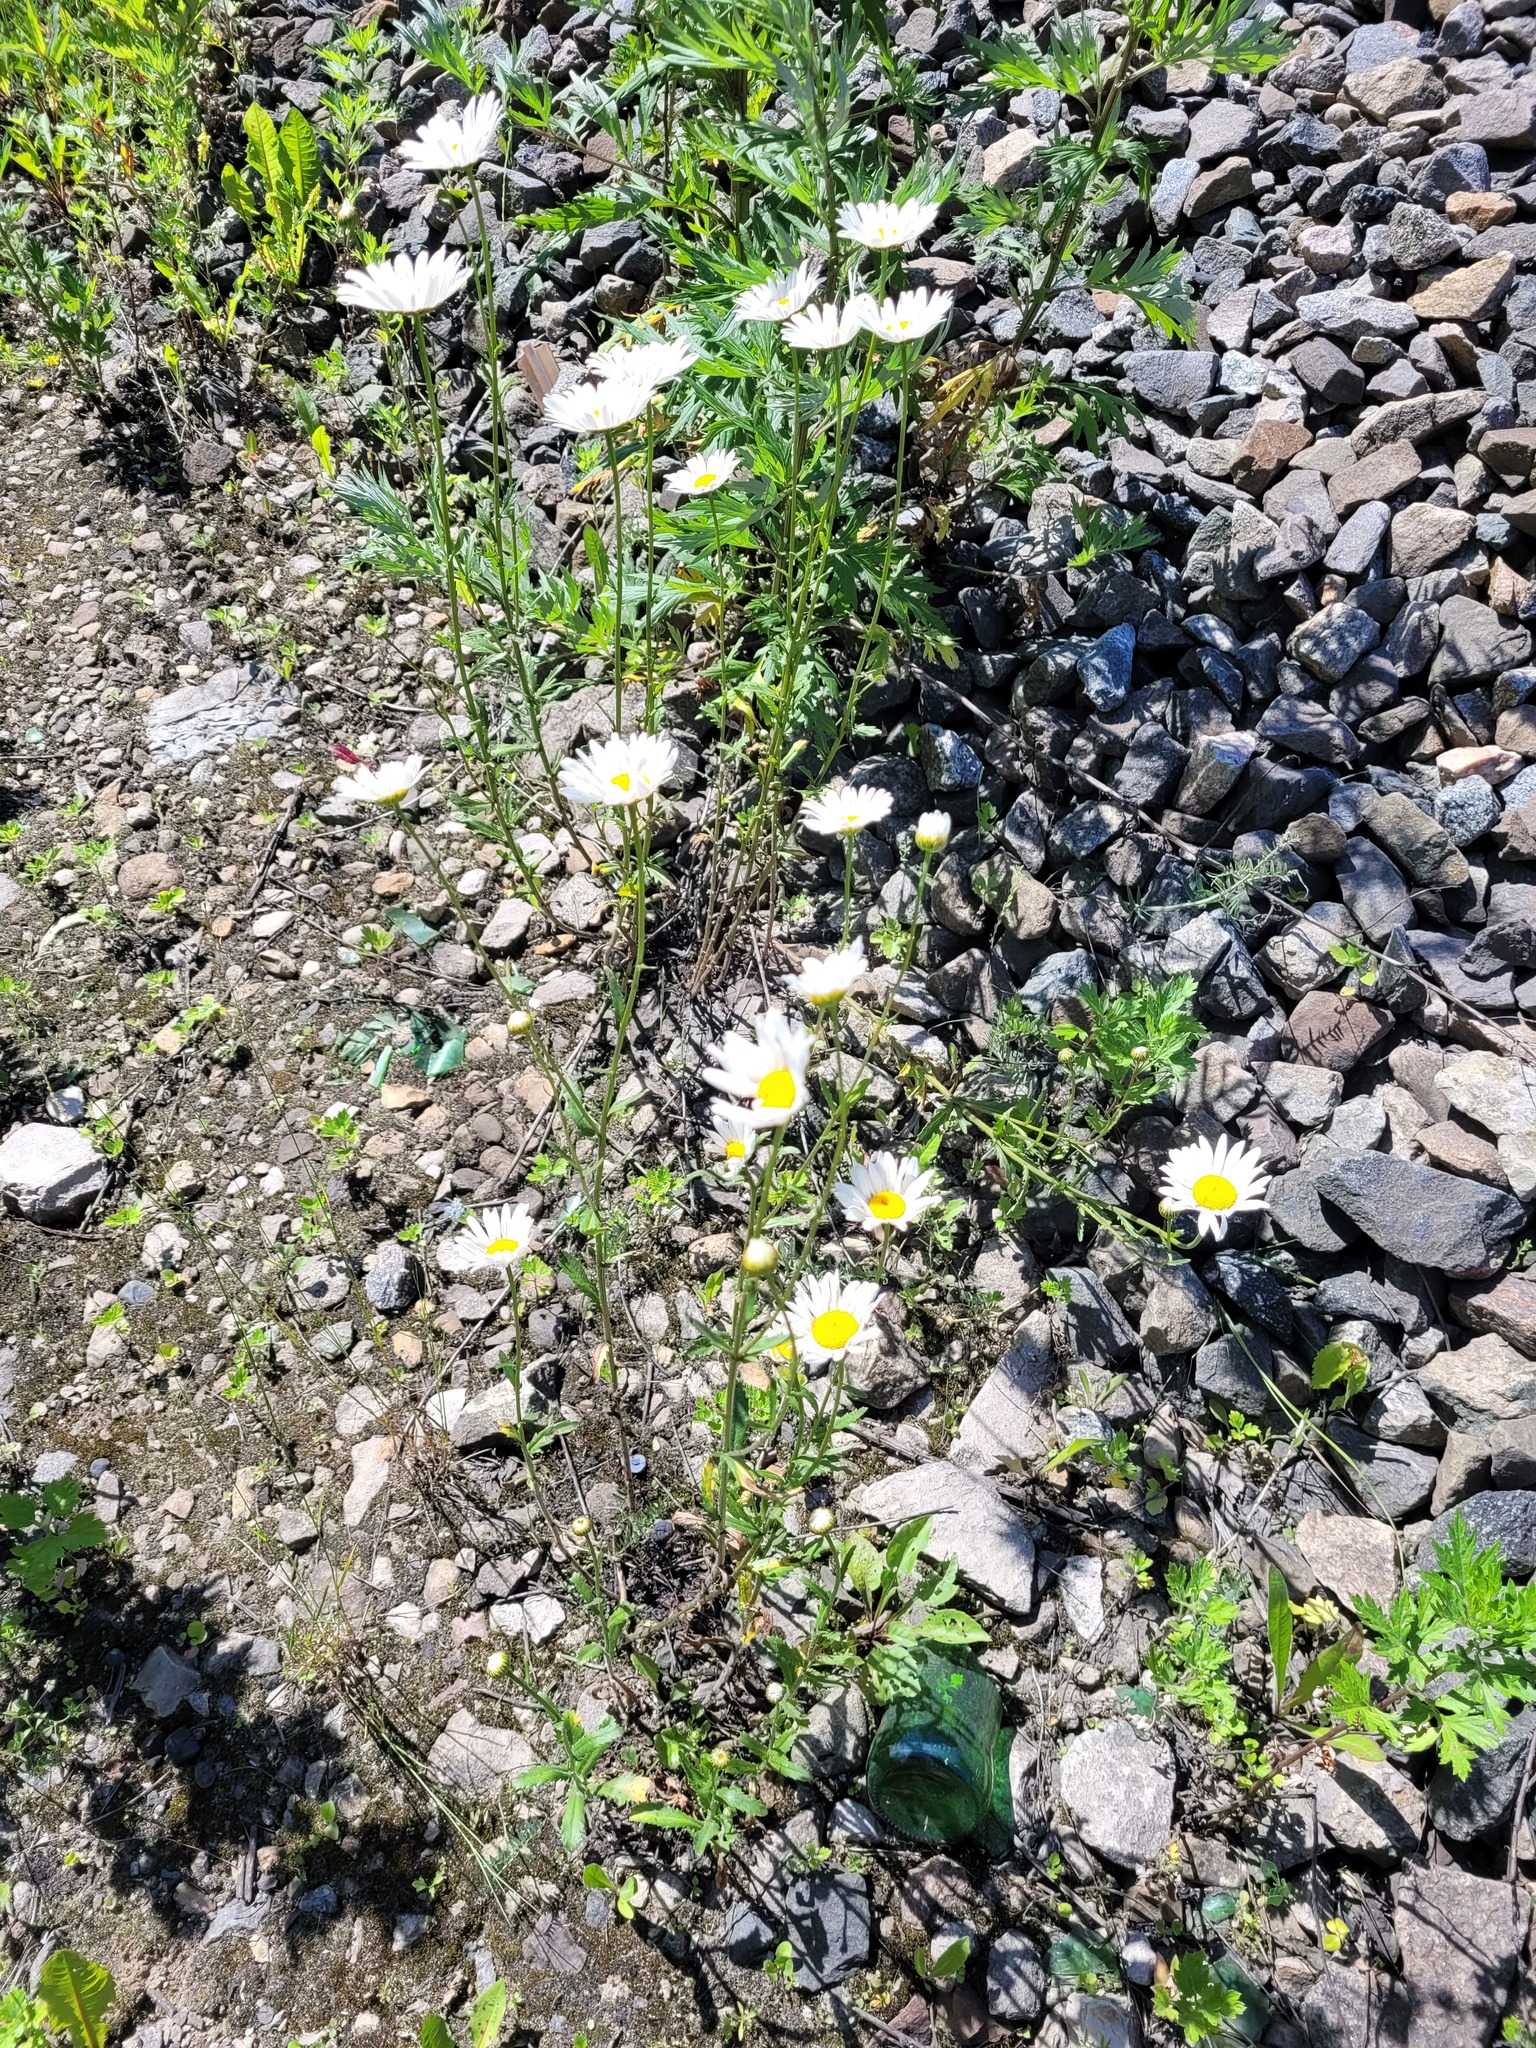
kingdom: Plantae
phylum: Tracheophyta
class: Magnoliopsida
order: Asterales
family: Asteraceae
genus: Leucanthemum
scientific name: Leucanthemum vulgare
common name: Oxeye daisy
